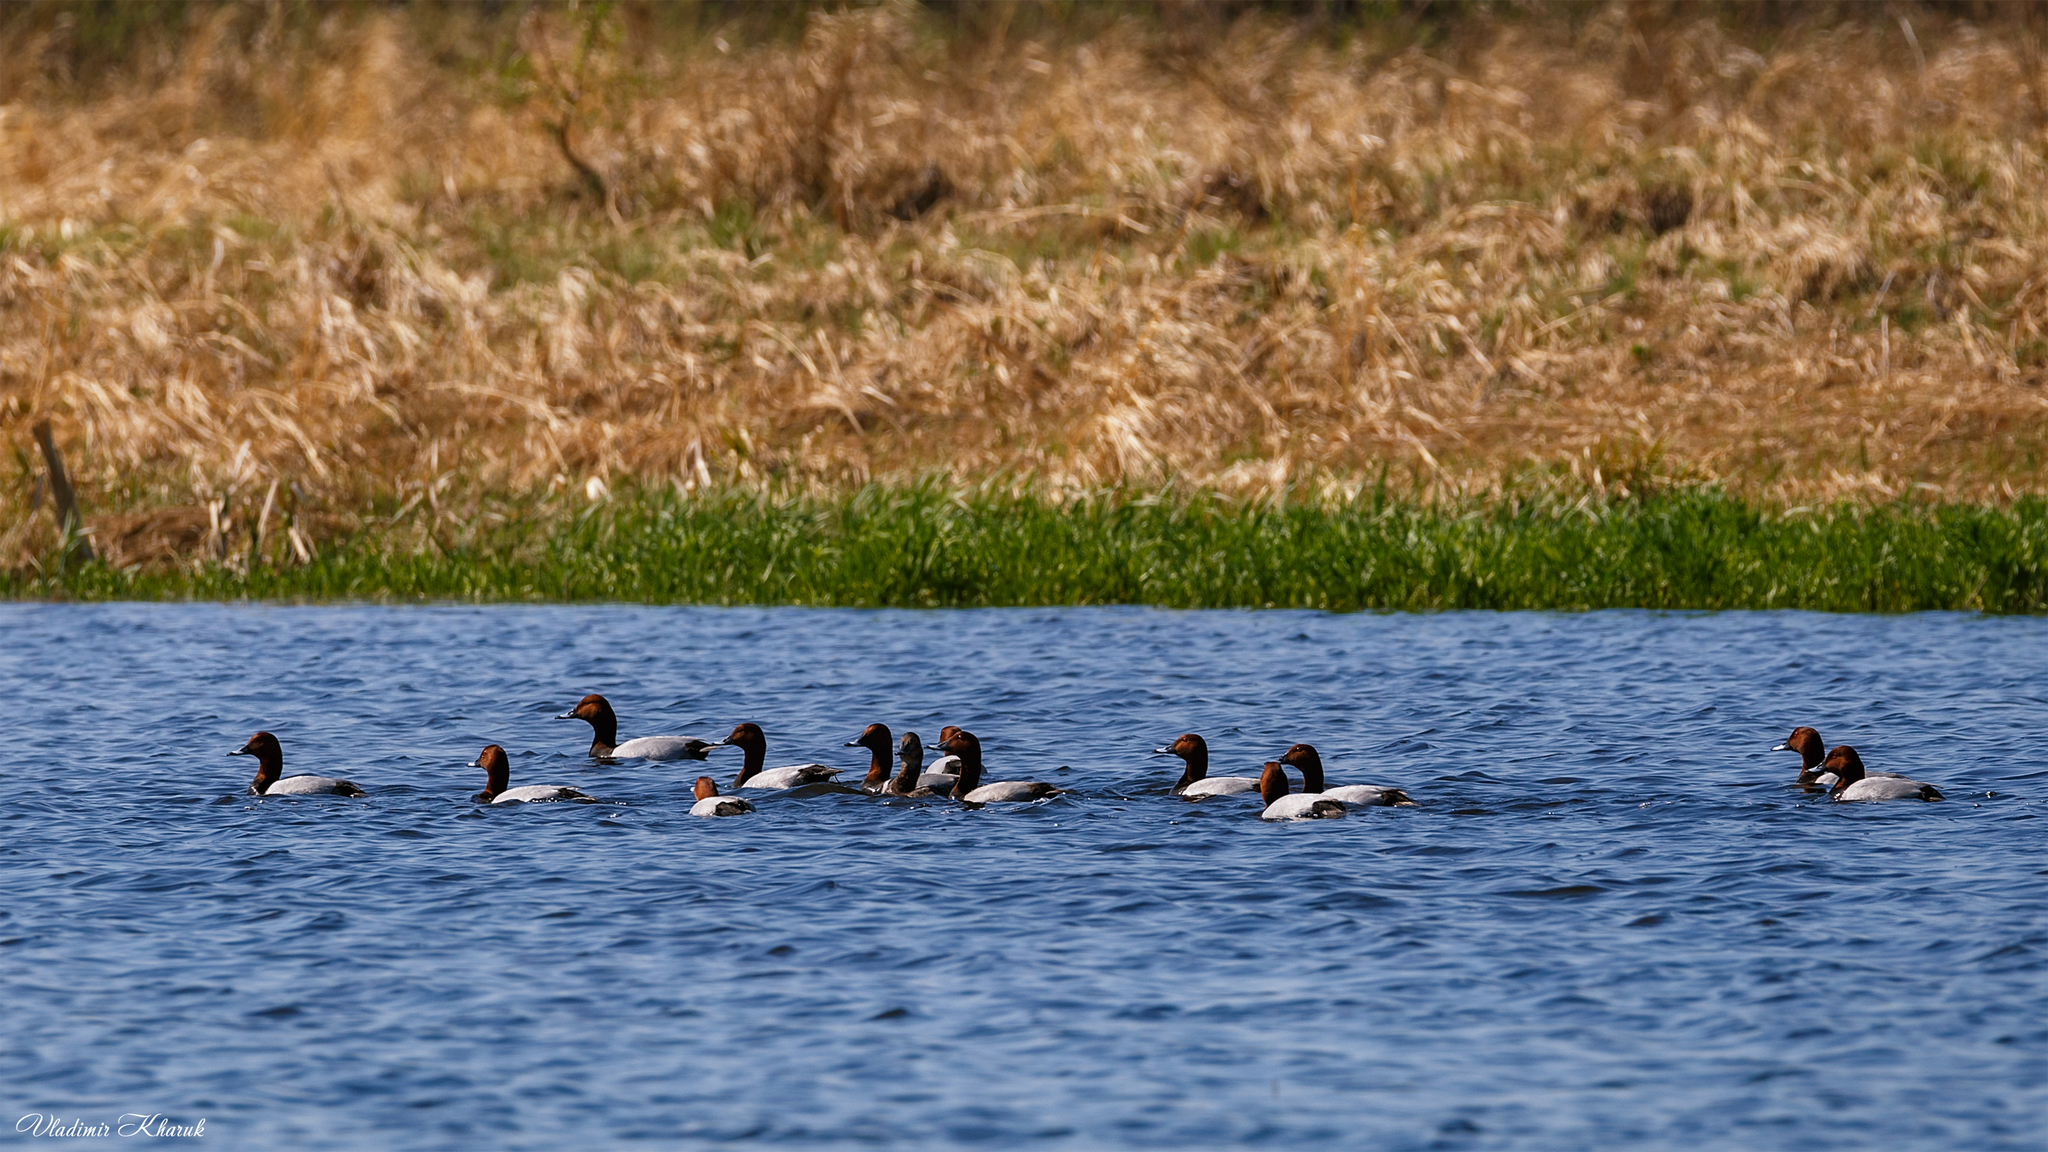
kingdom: Animalia
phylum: Chordata
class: Aves
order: Anseriformes
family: Anatidae
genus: Aythya
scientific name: Aythya ferina
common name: Common pochard
